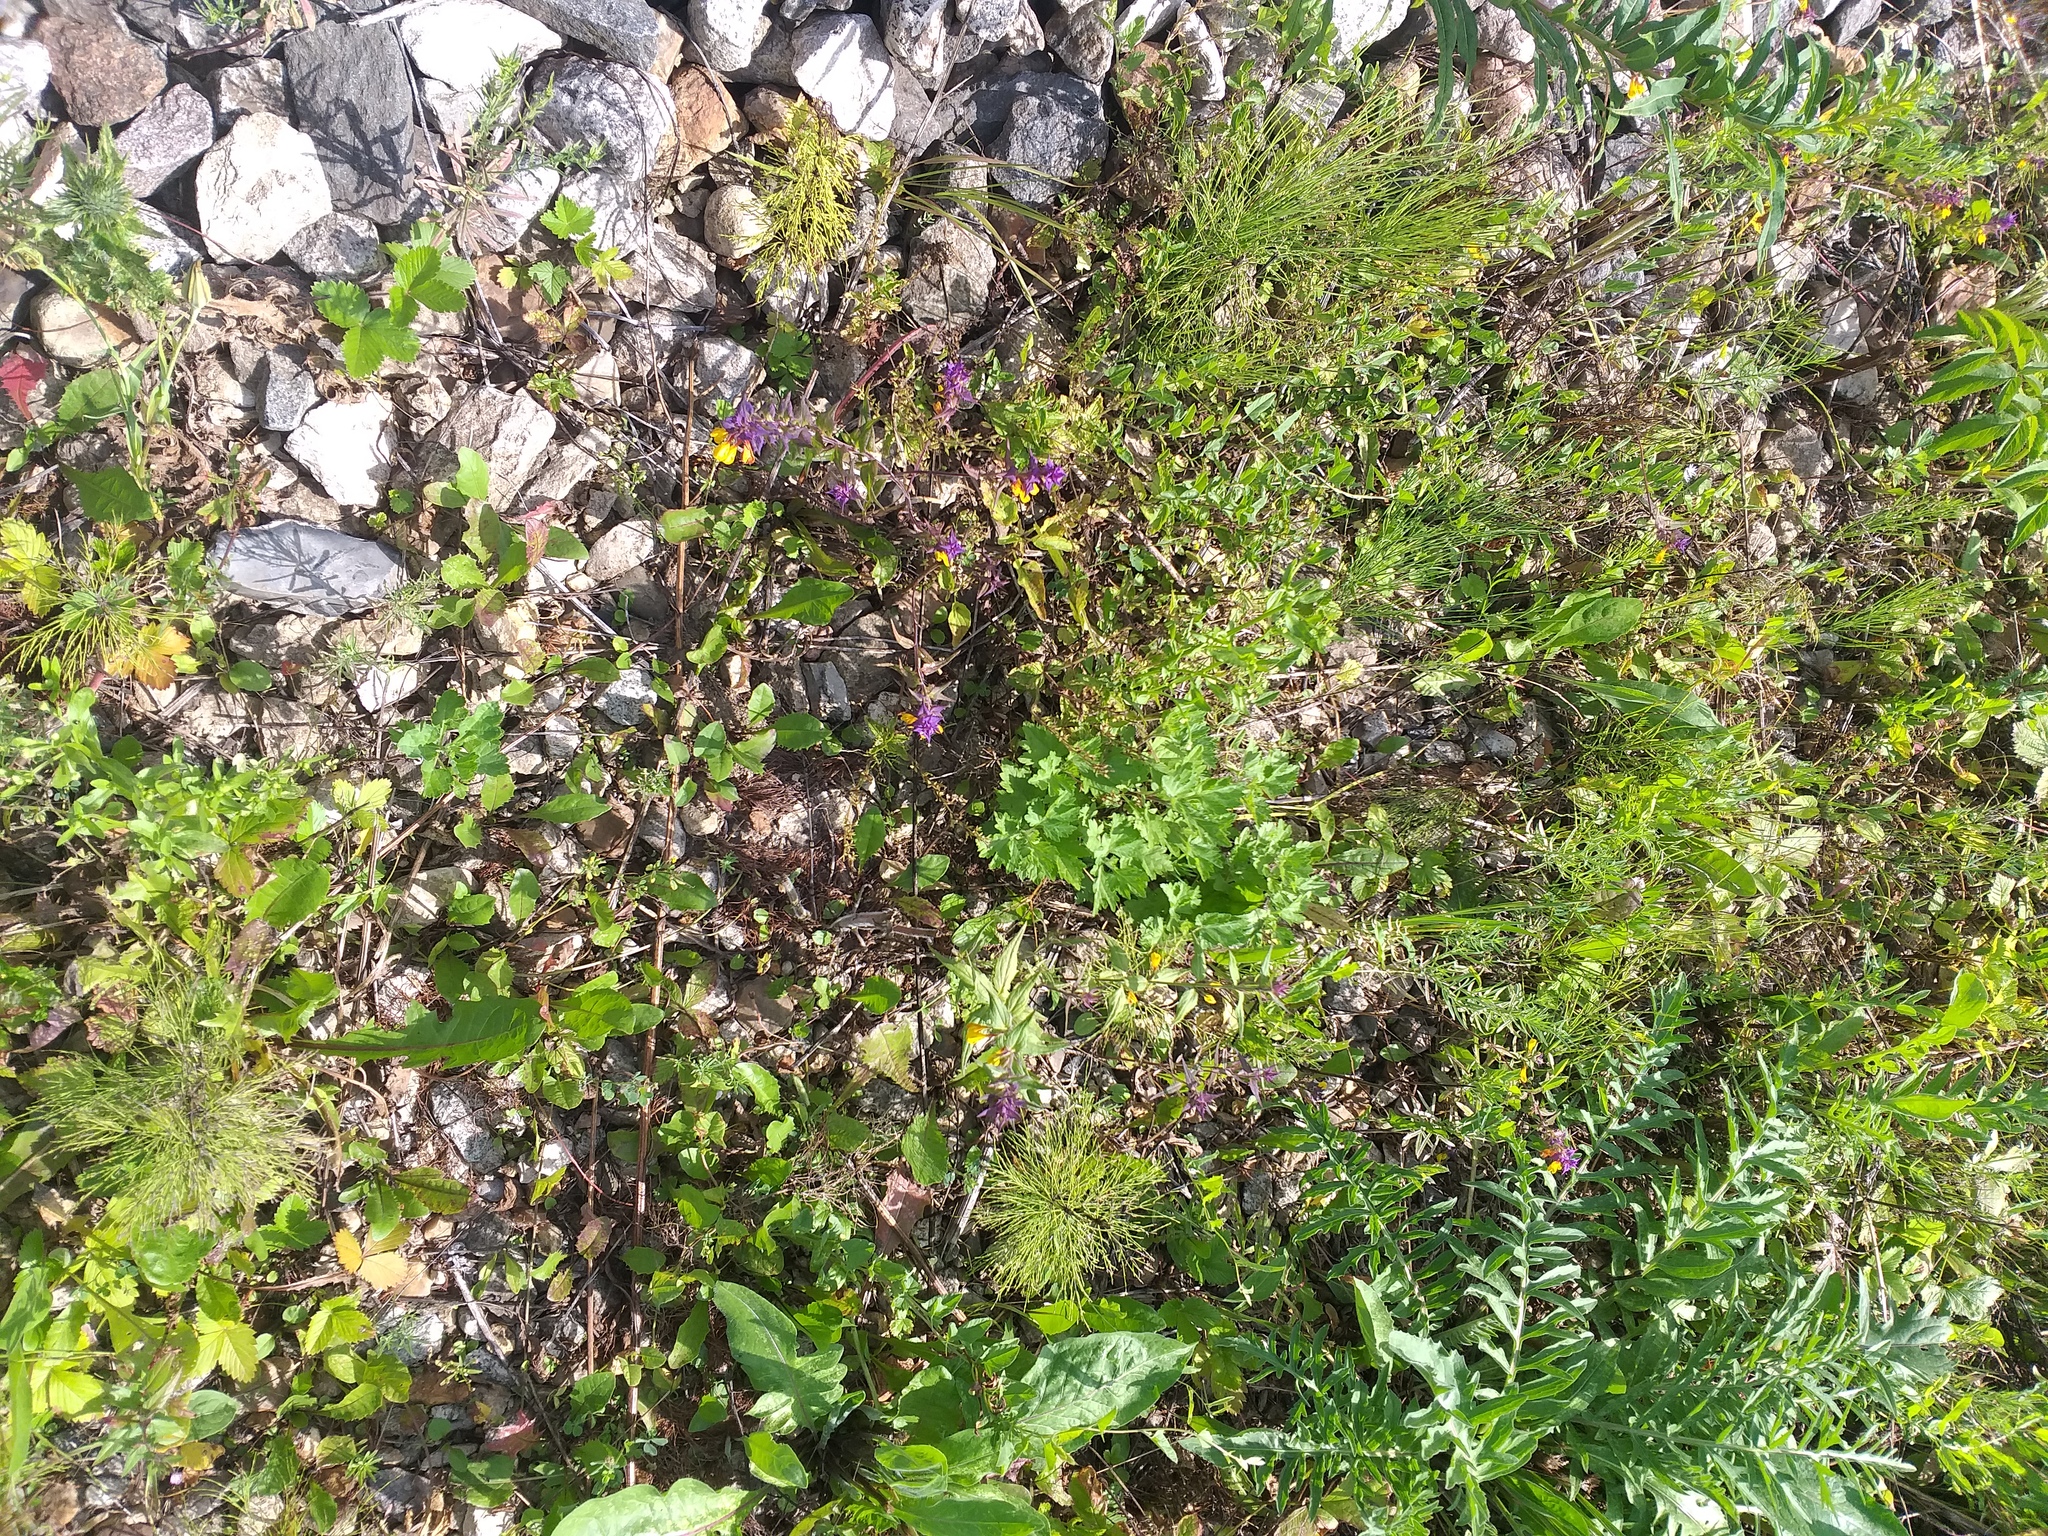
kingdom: Plantae
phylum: Tracheophyta
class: Magnoliopsida
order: Lamiales
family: Orobanchaceae
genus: Melampyrum
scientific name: Melampyrum nemorosum
